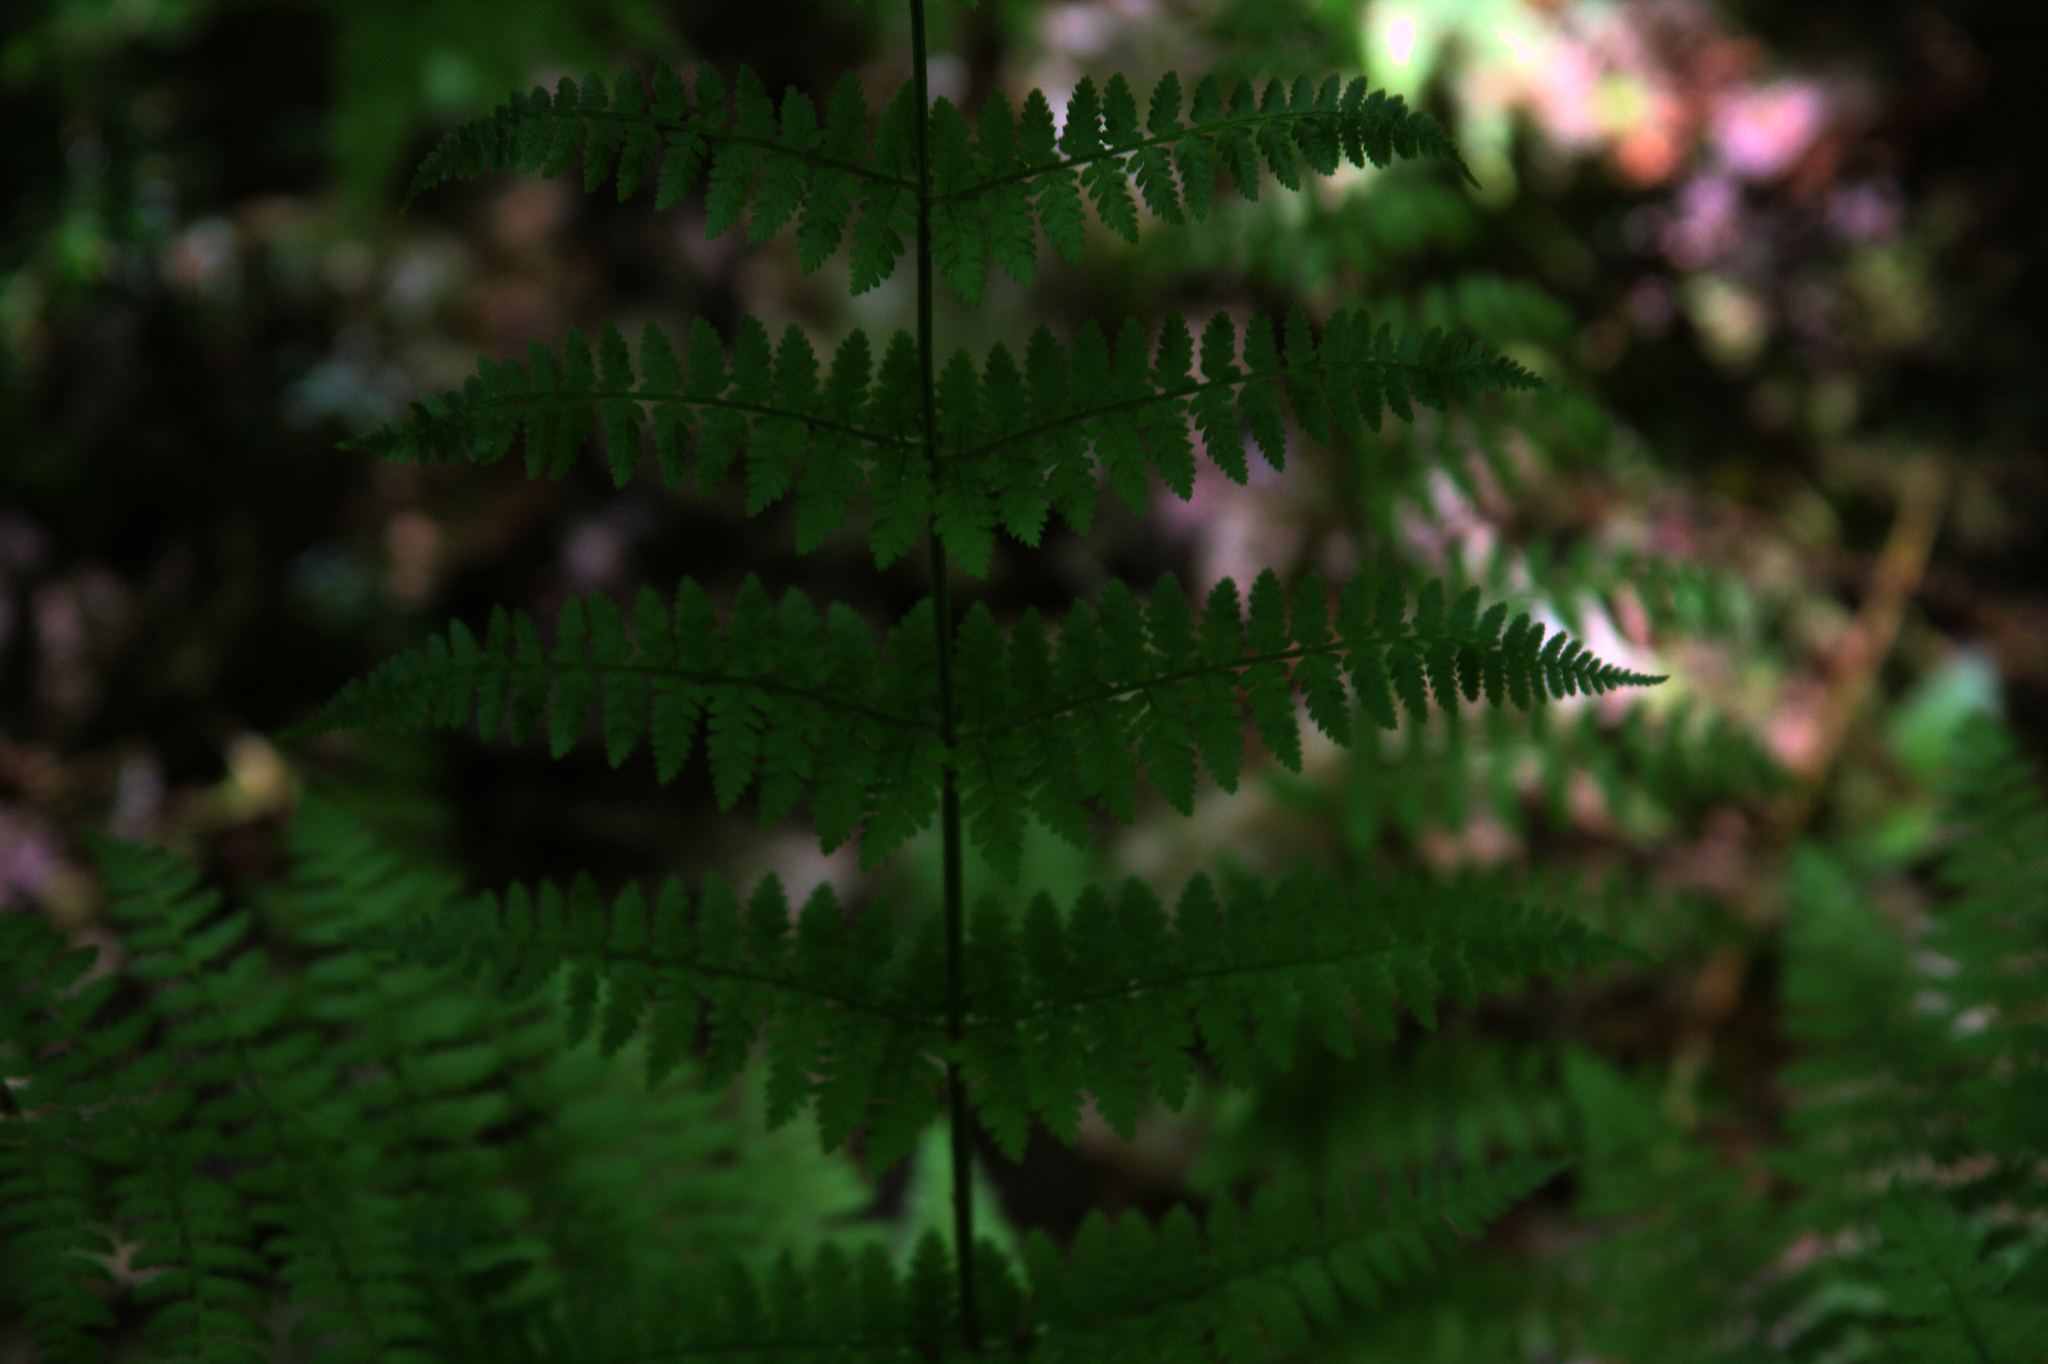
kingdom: Plantae
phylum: Tracheophyta
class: Polypodiopsida
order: Polypodiales
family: Dryopteridaceae
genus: Dryopteris
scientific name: Dryopteris intermedia
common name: Evergreen wood fern
